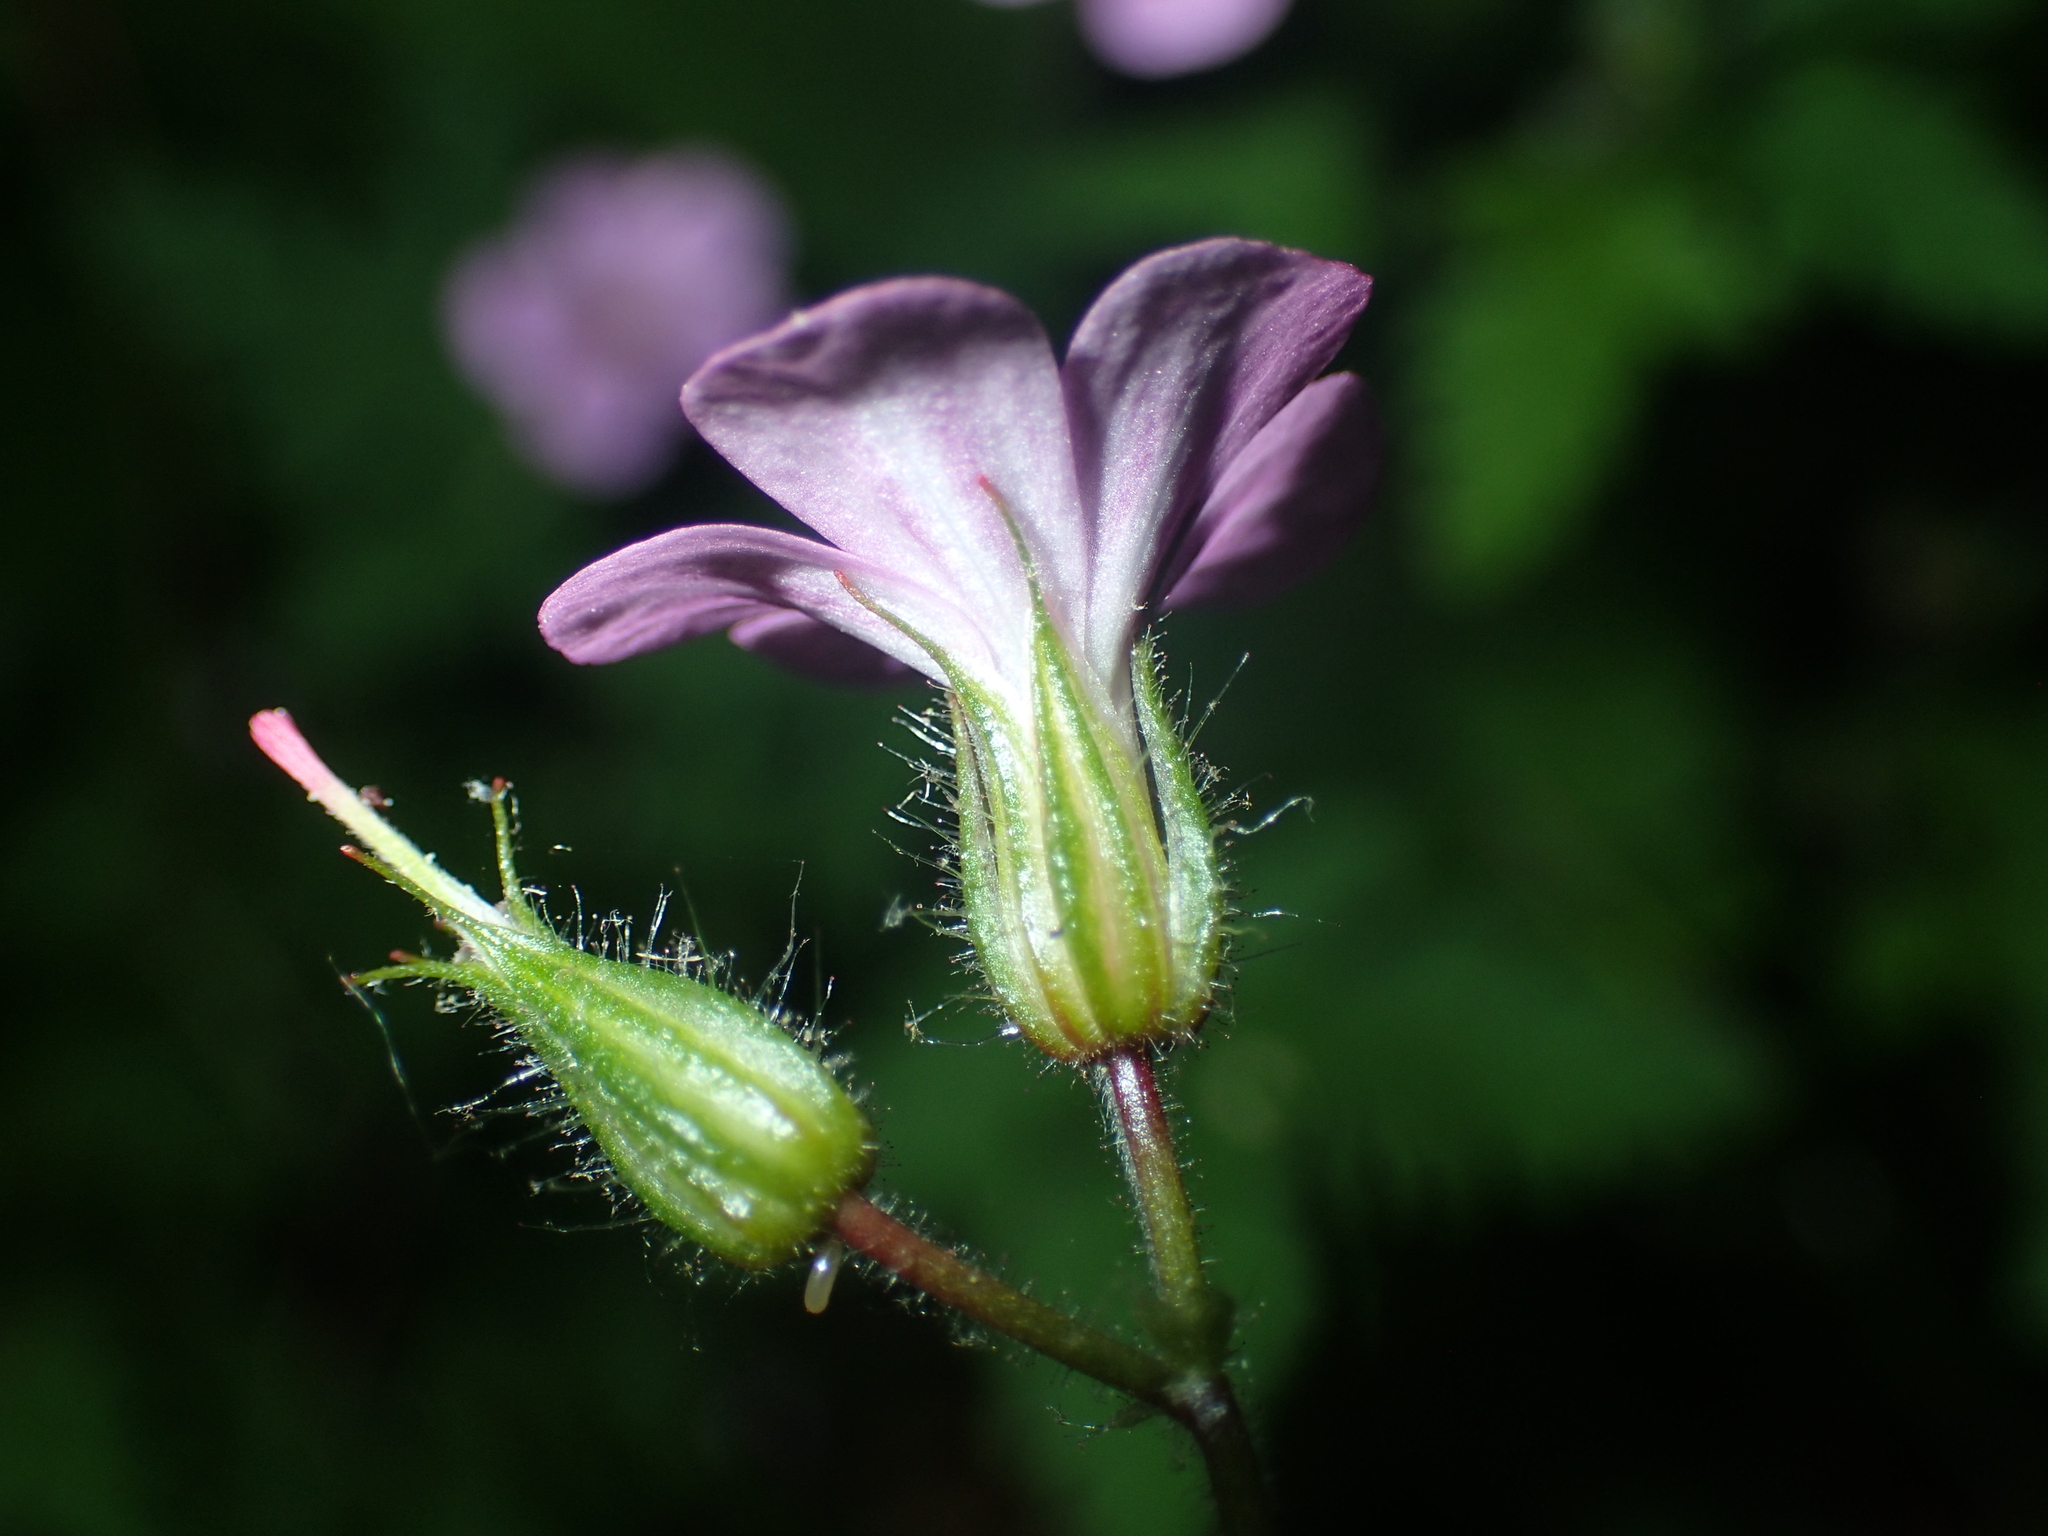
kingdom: Plantae
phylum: Tracheophyta
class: Magnoliopsida
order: Geraniales
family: Geraniaceae
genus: Geranium
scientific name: Geranium robertianum
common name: Herb-robert
